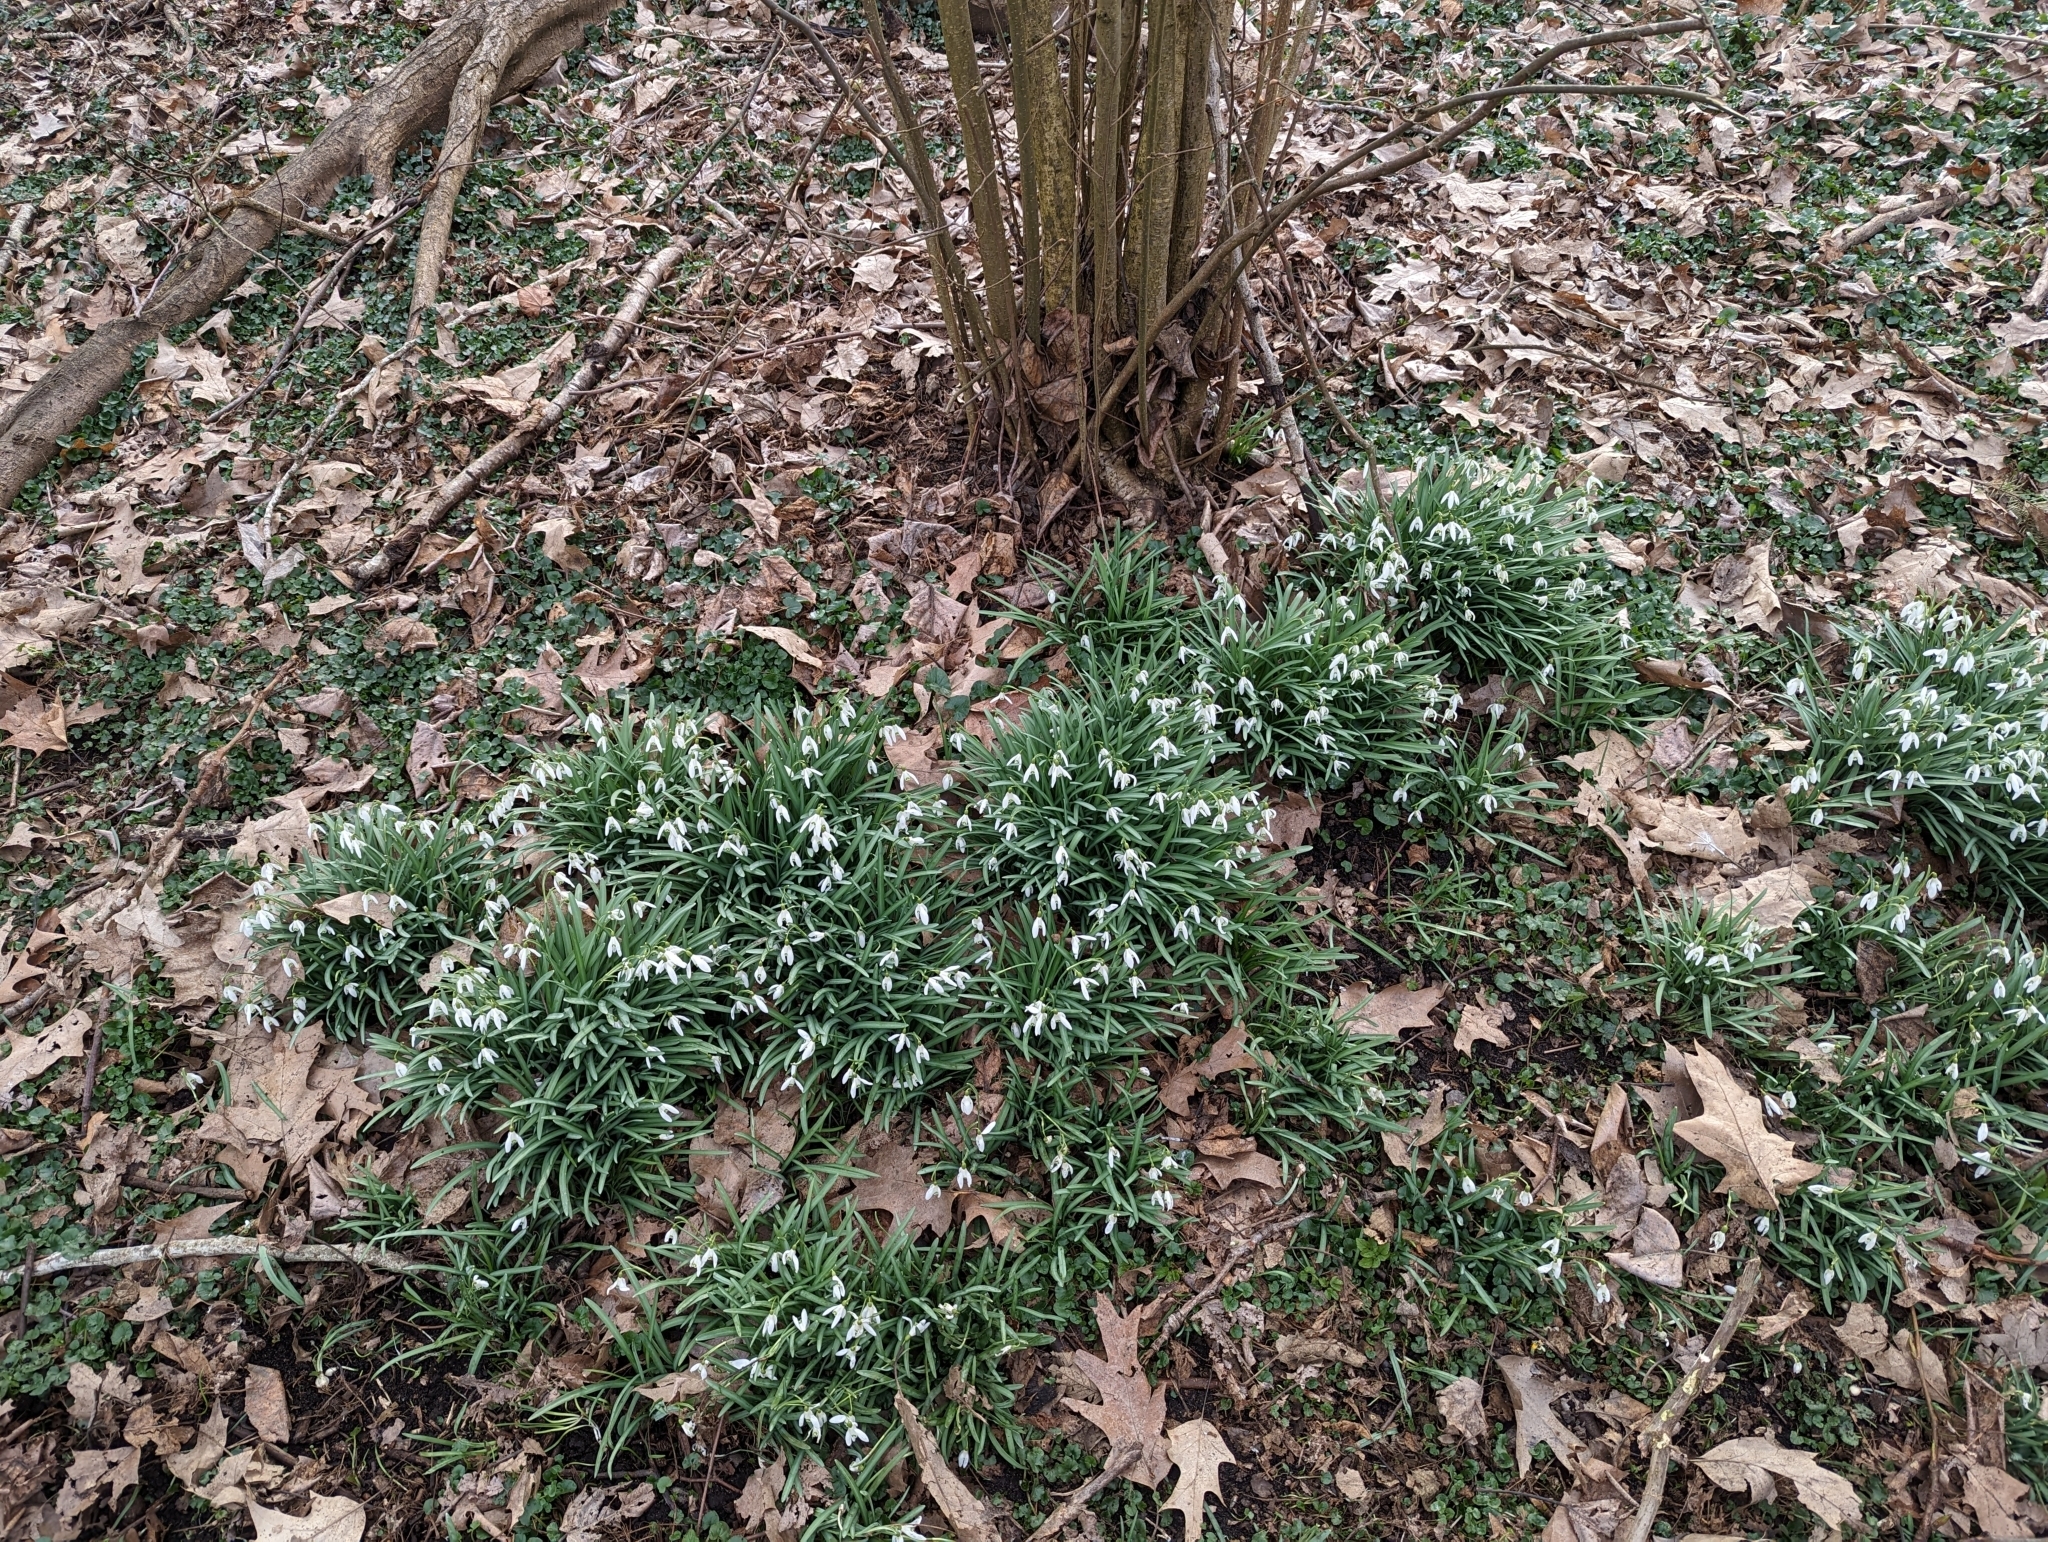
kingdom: Plantae
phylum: Tracheophyta
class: Liliopsida
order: Asparagales
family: Amaryllidaceae
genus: Galanthus
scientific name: Galanthus nivalis
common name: Snowdrop
